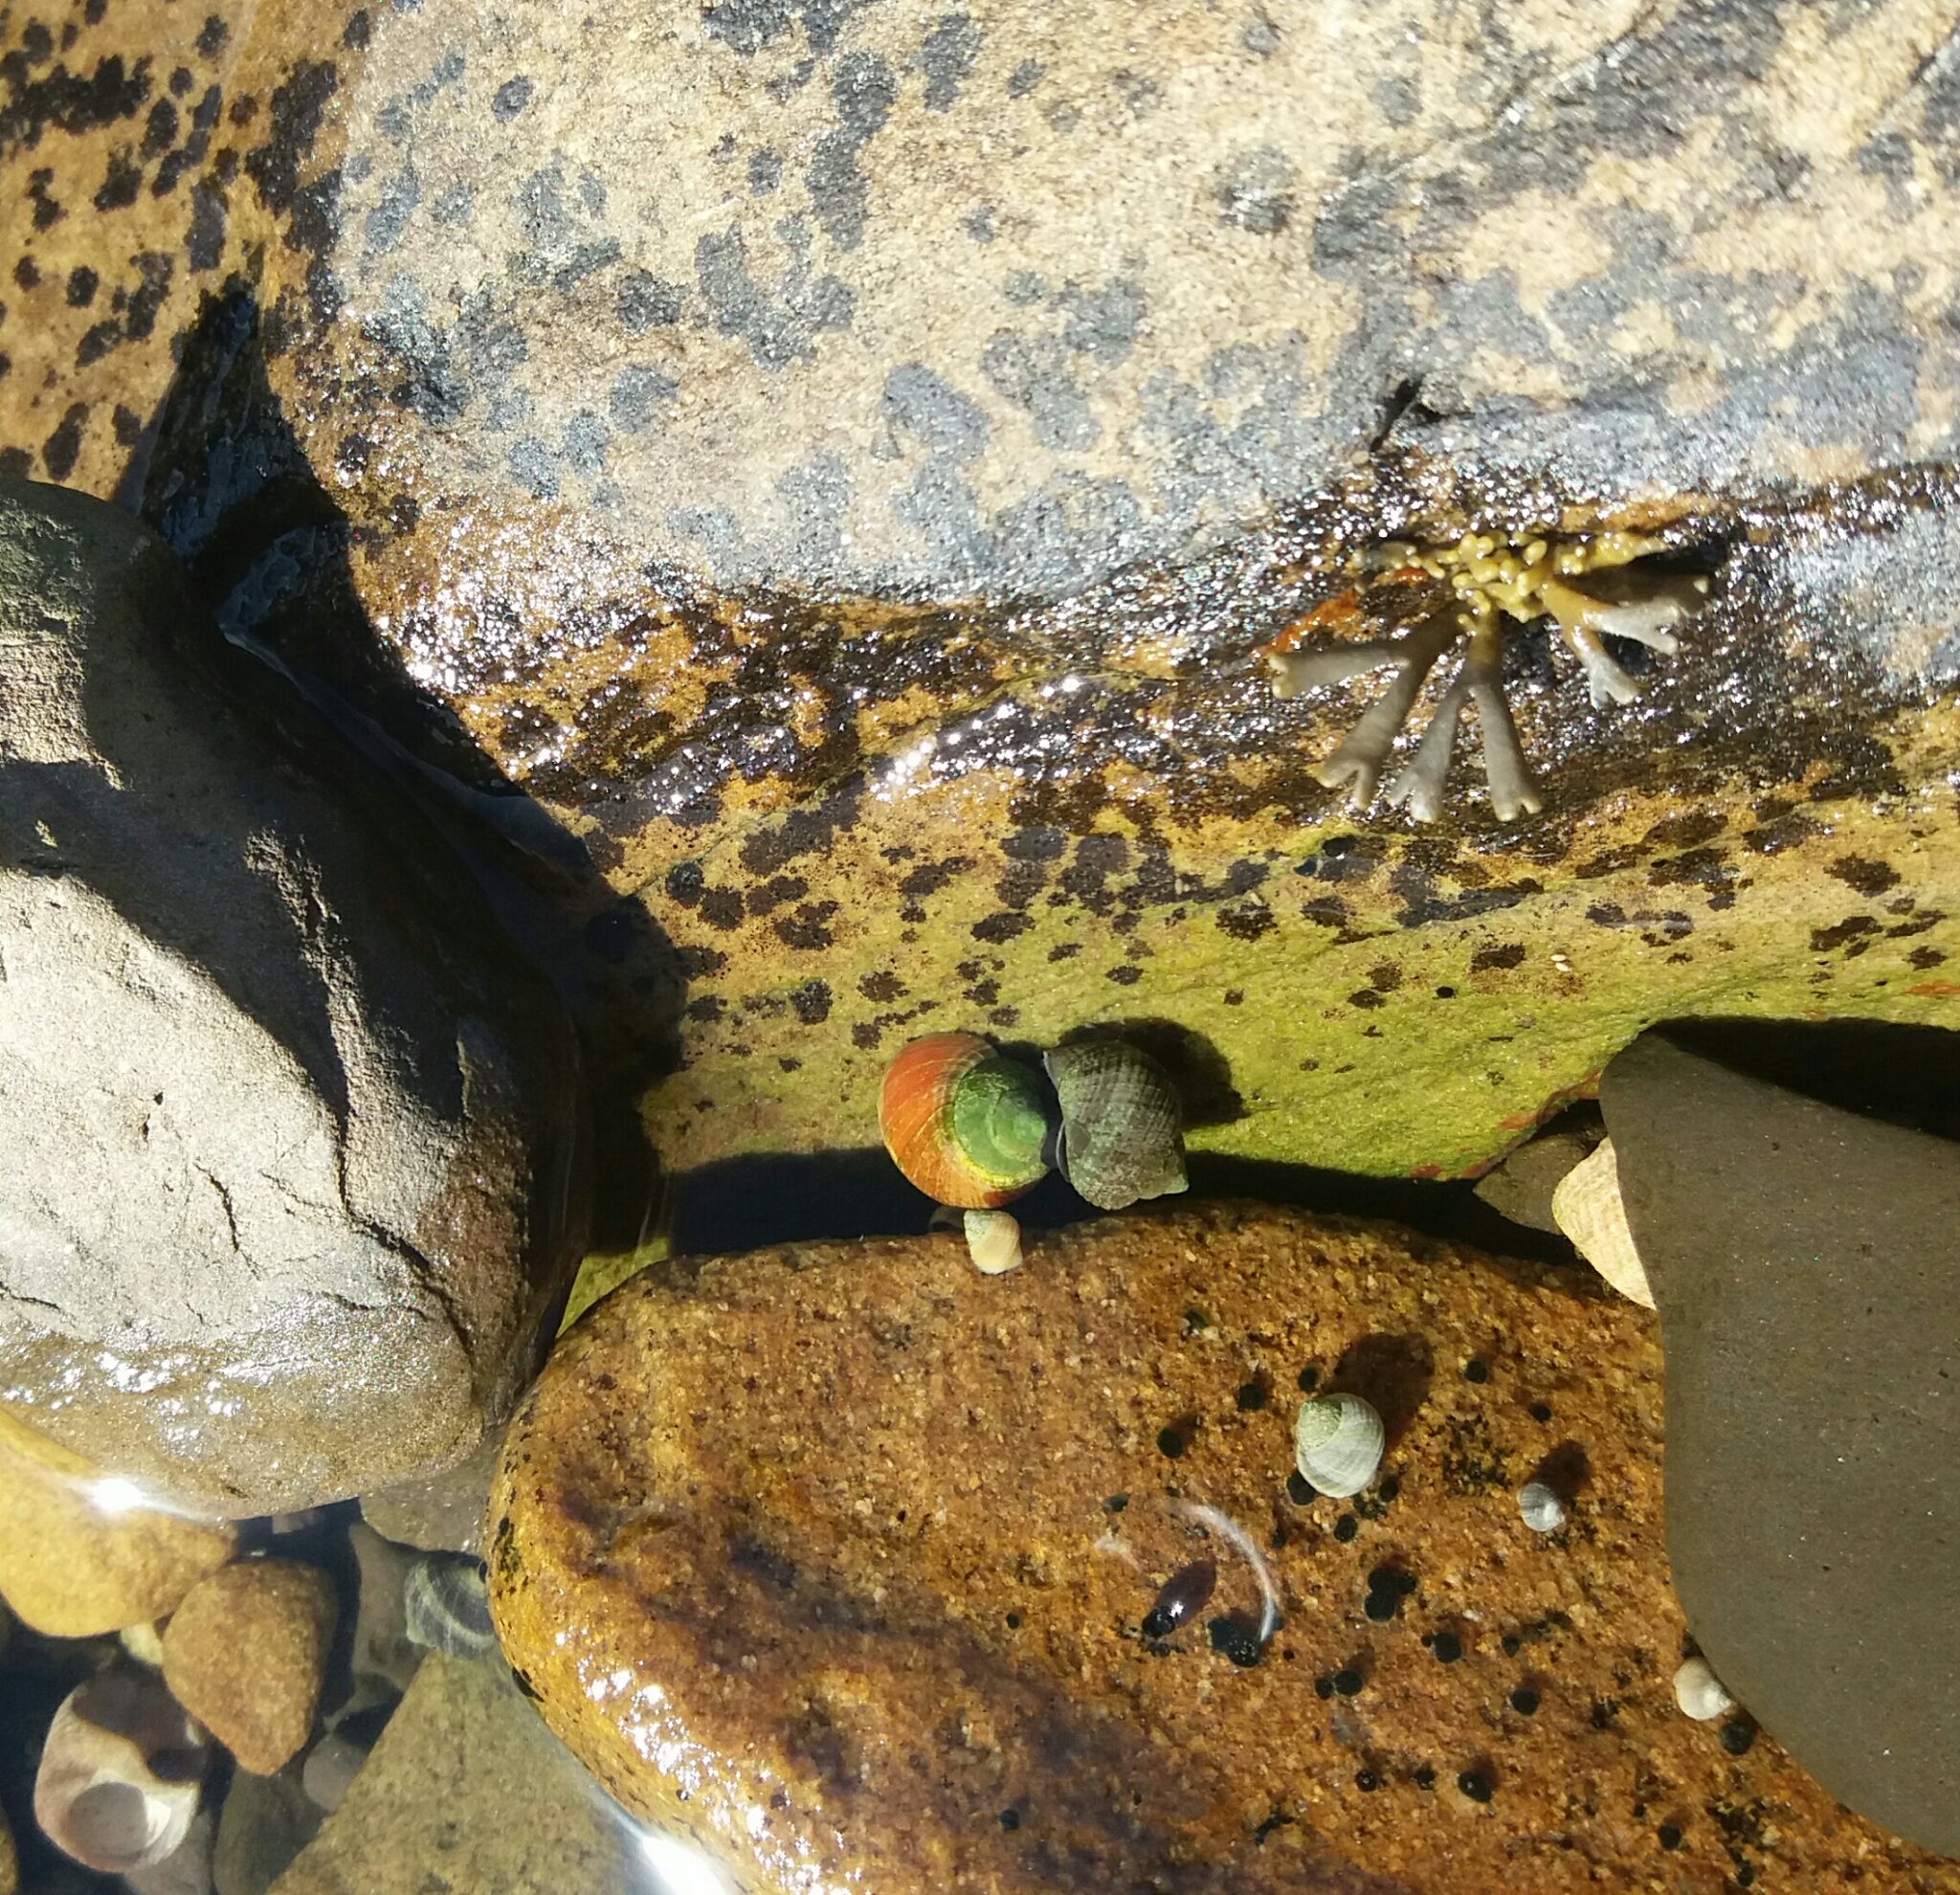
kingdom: Animalia
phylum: Mollusca
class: Gastropoda
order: Littorinimorpha
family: Littorinidae
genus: Littorina
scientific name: Littorina saxatilis
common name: Black-lined periwinkle
